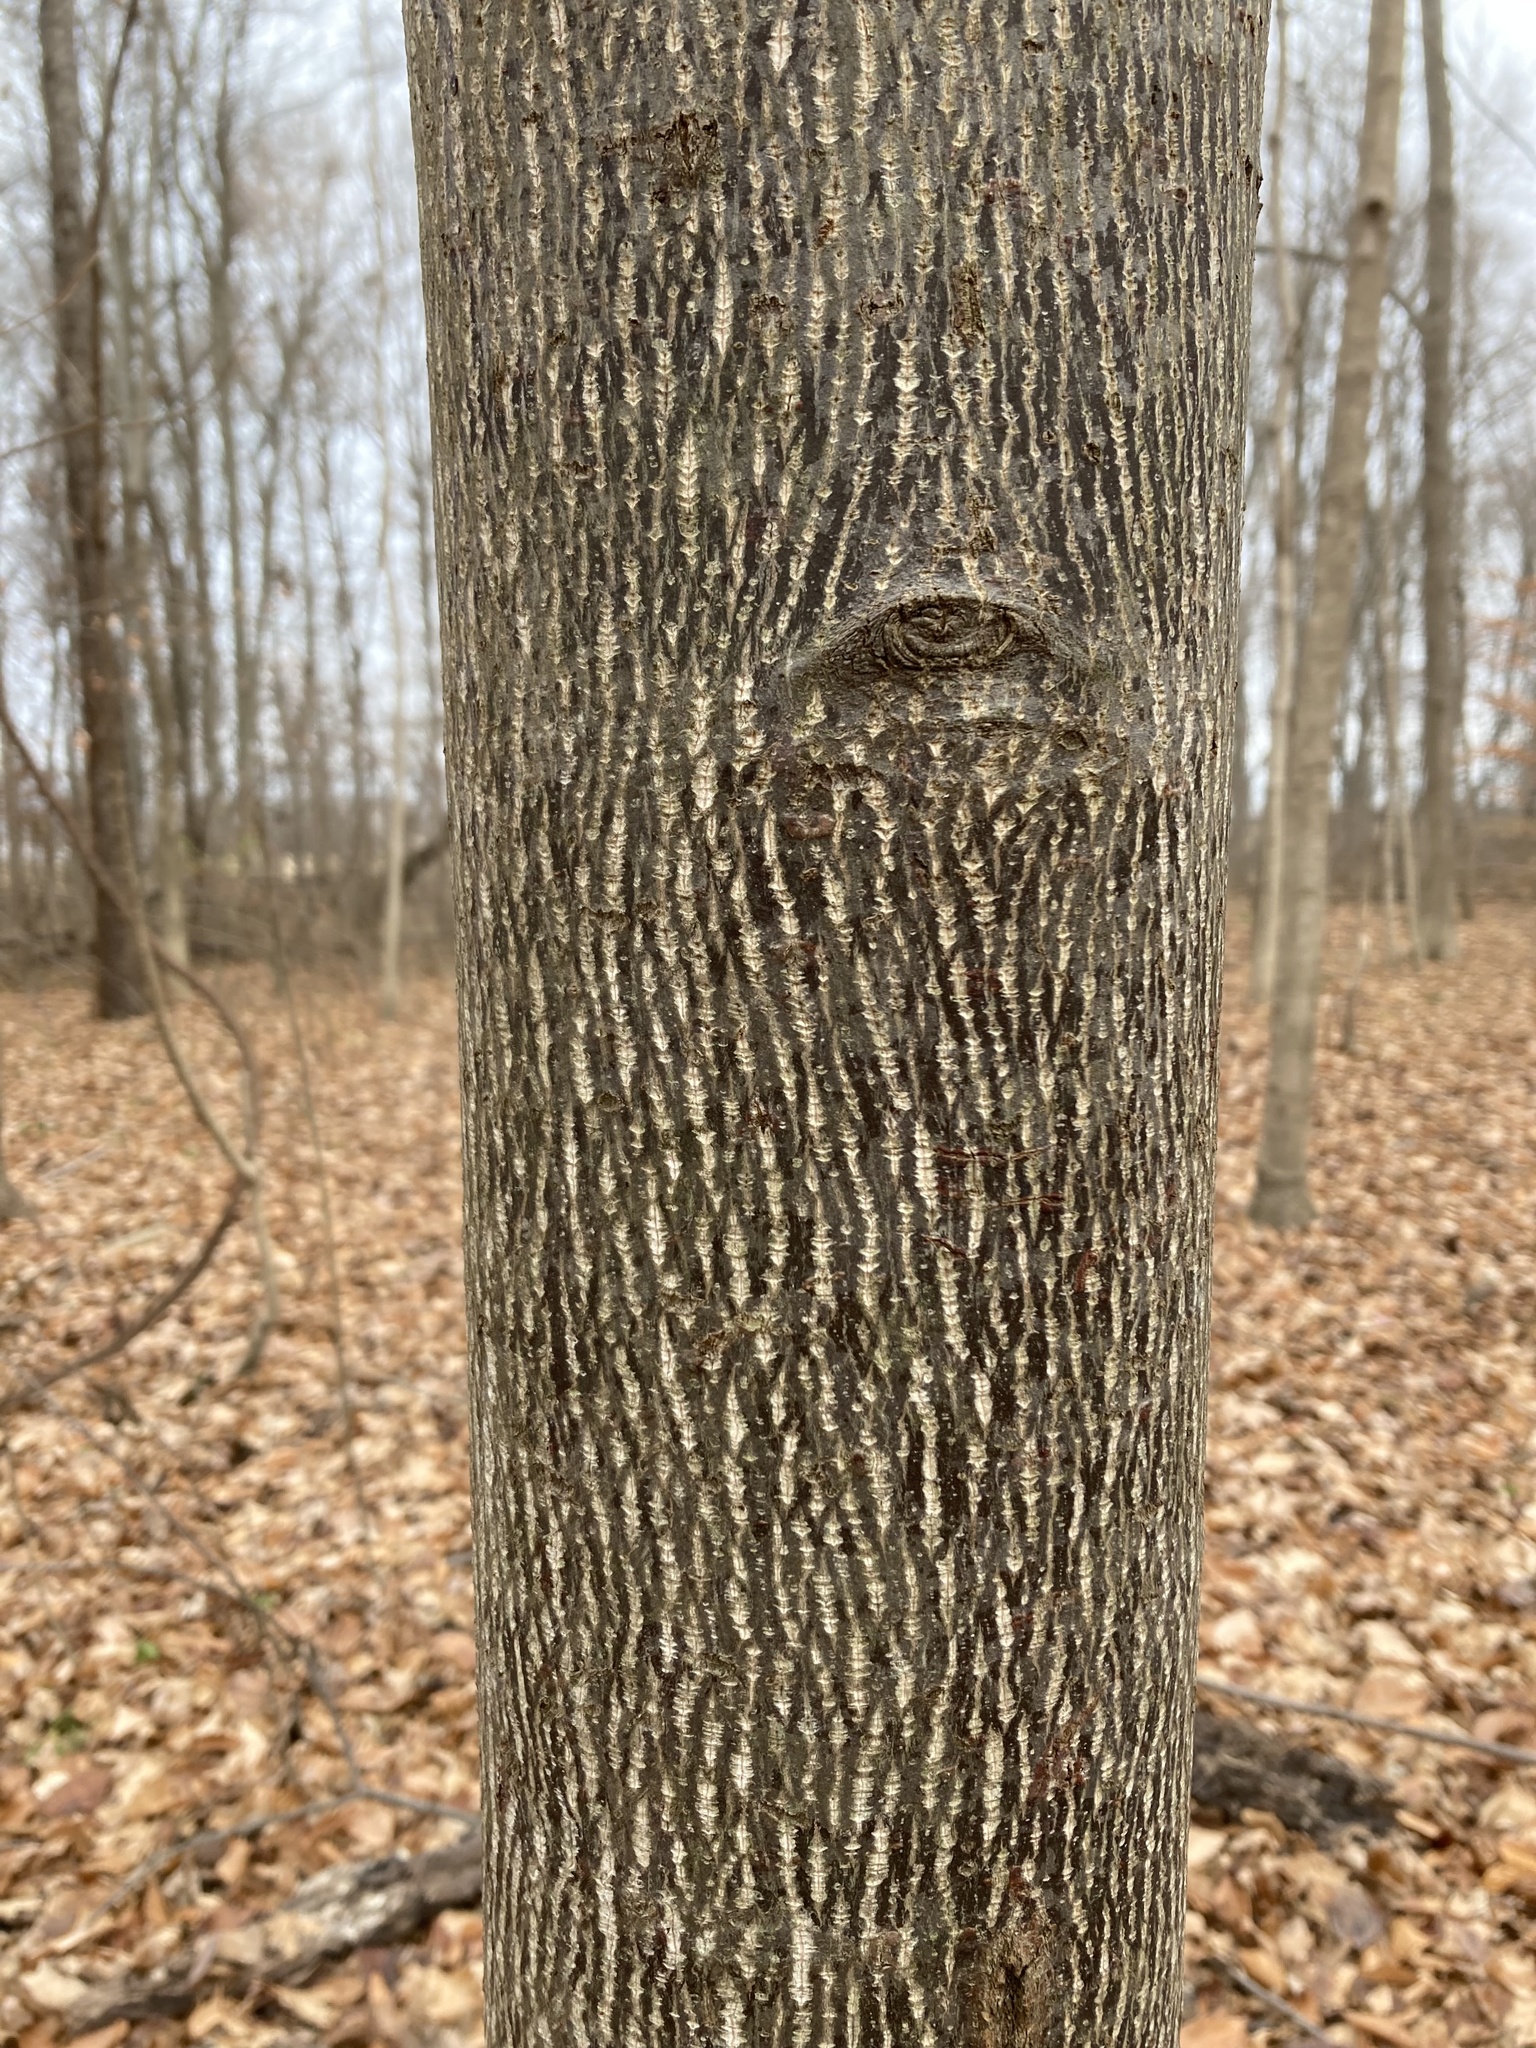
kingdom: Plantae
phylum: Tracheophyta
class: Magnoliopsida
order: Magnoliales
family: Magnoliaceae
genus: Liriodendron
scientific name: Liriodendron tulipifera
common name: Tulip tree
